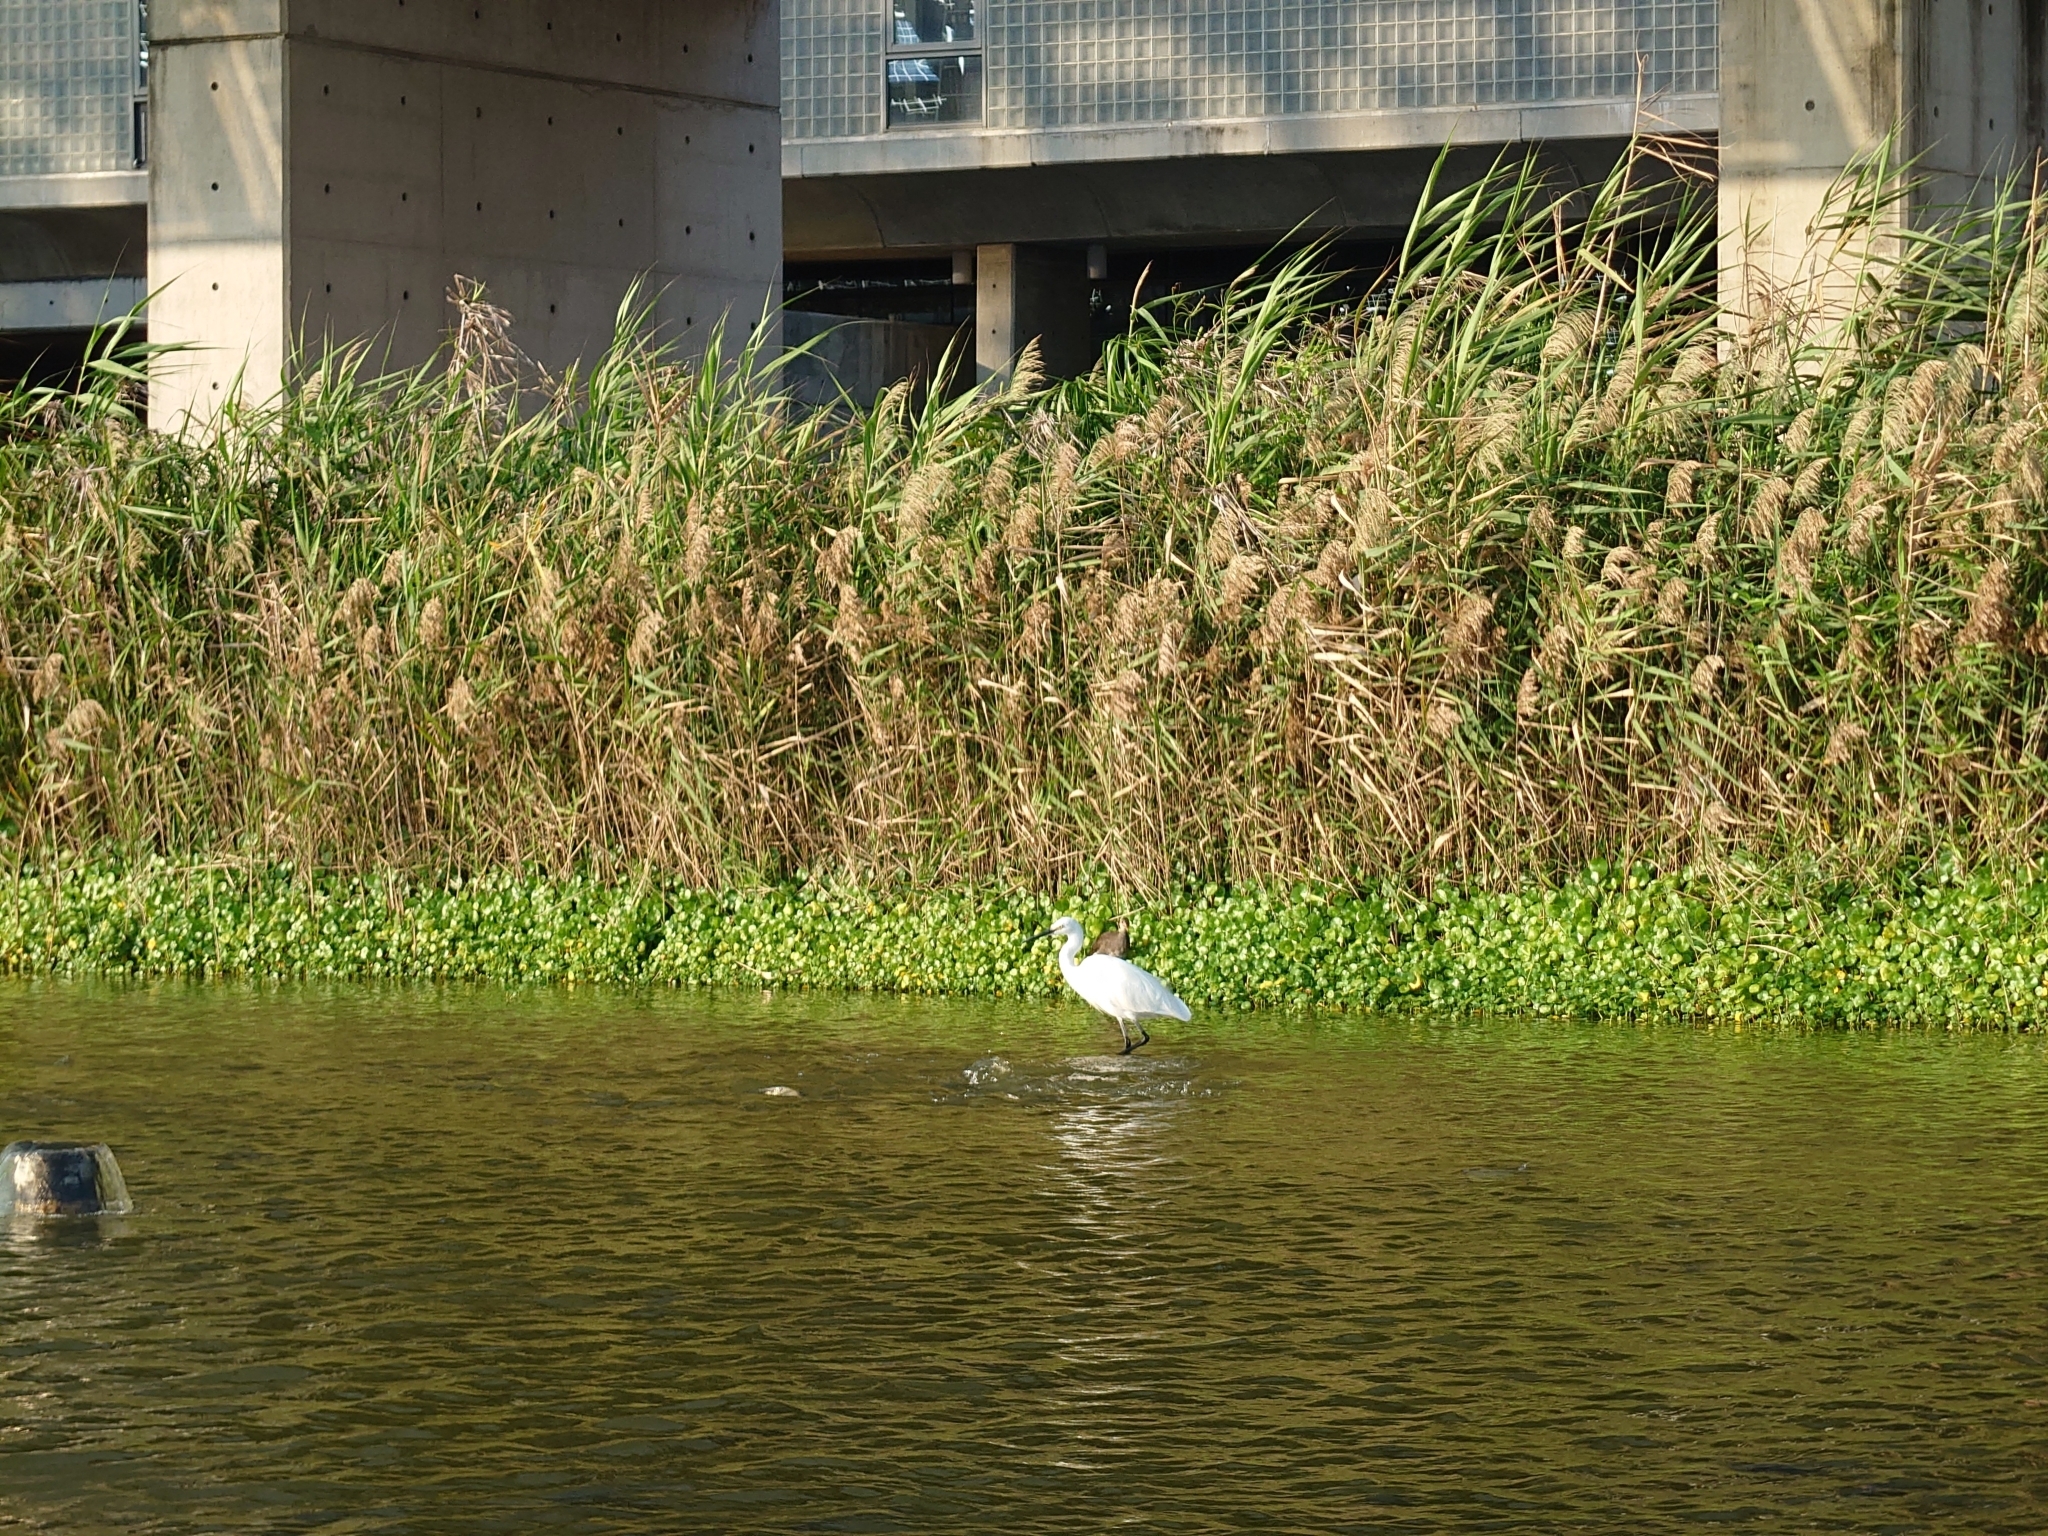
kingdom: Animalia
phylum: Chordata
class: Aves
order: Pelecaniformes
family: Ardeidae
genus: Egretta
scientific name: Egretta garzetta
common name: Little egret
